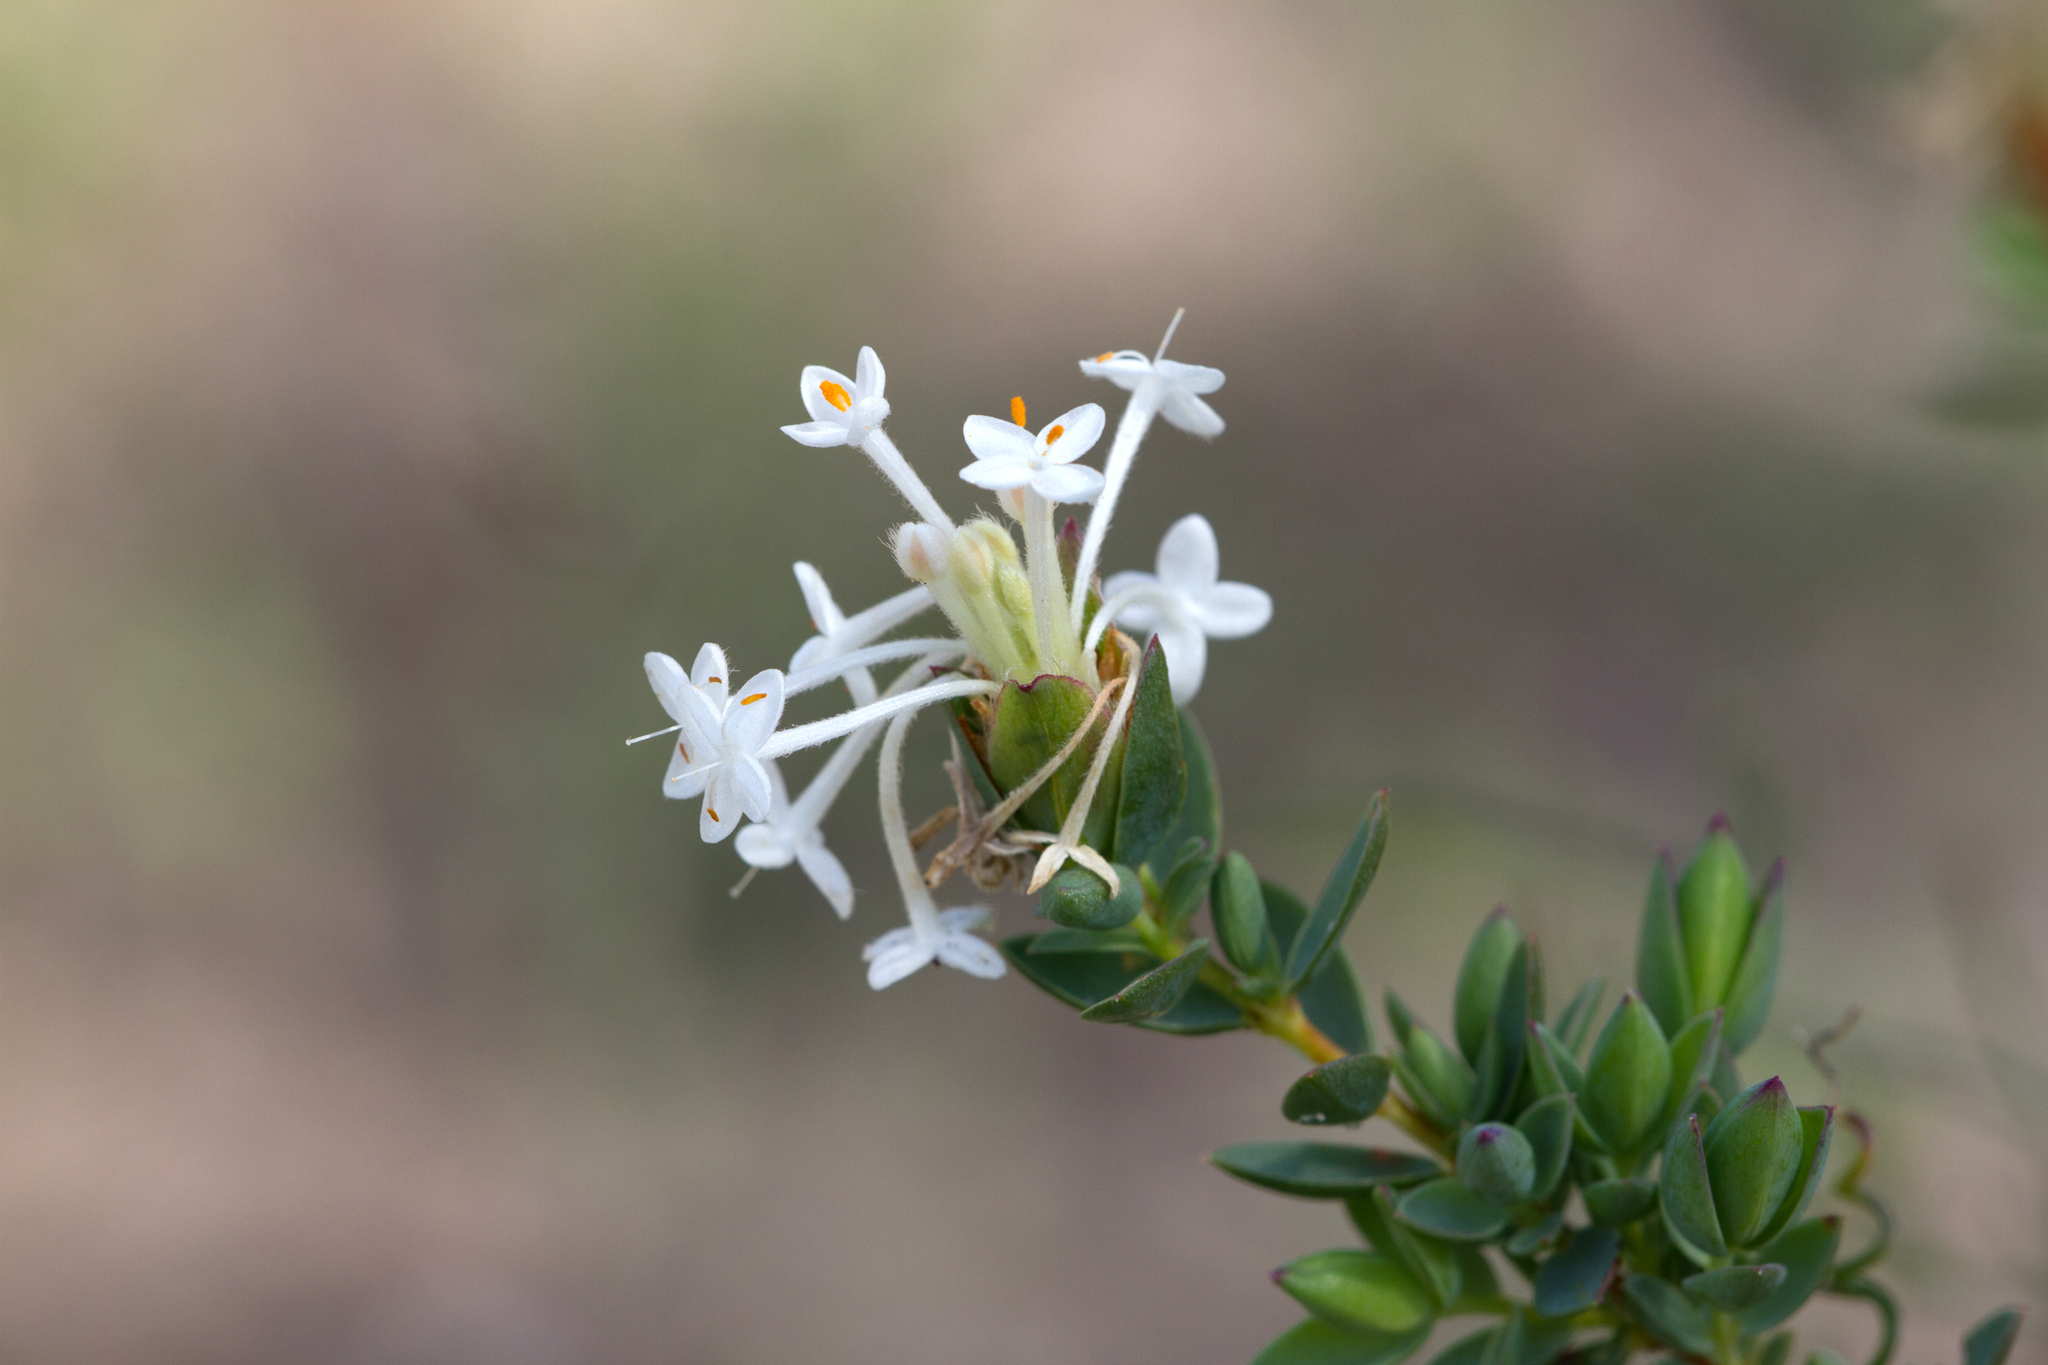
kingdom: Plantae
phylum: Tracheophyta
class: Magnoliopsida
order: Malvales
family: Thymelaeaceae
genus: Pimelea
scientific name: Pimelea glauca
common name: Smooth riceflower
